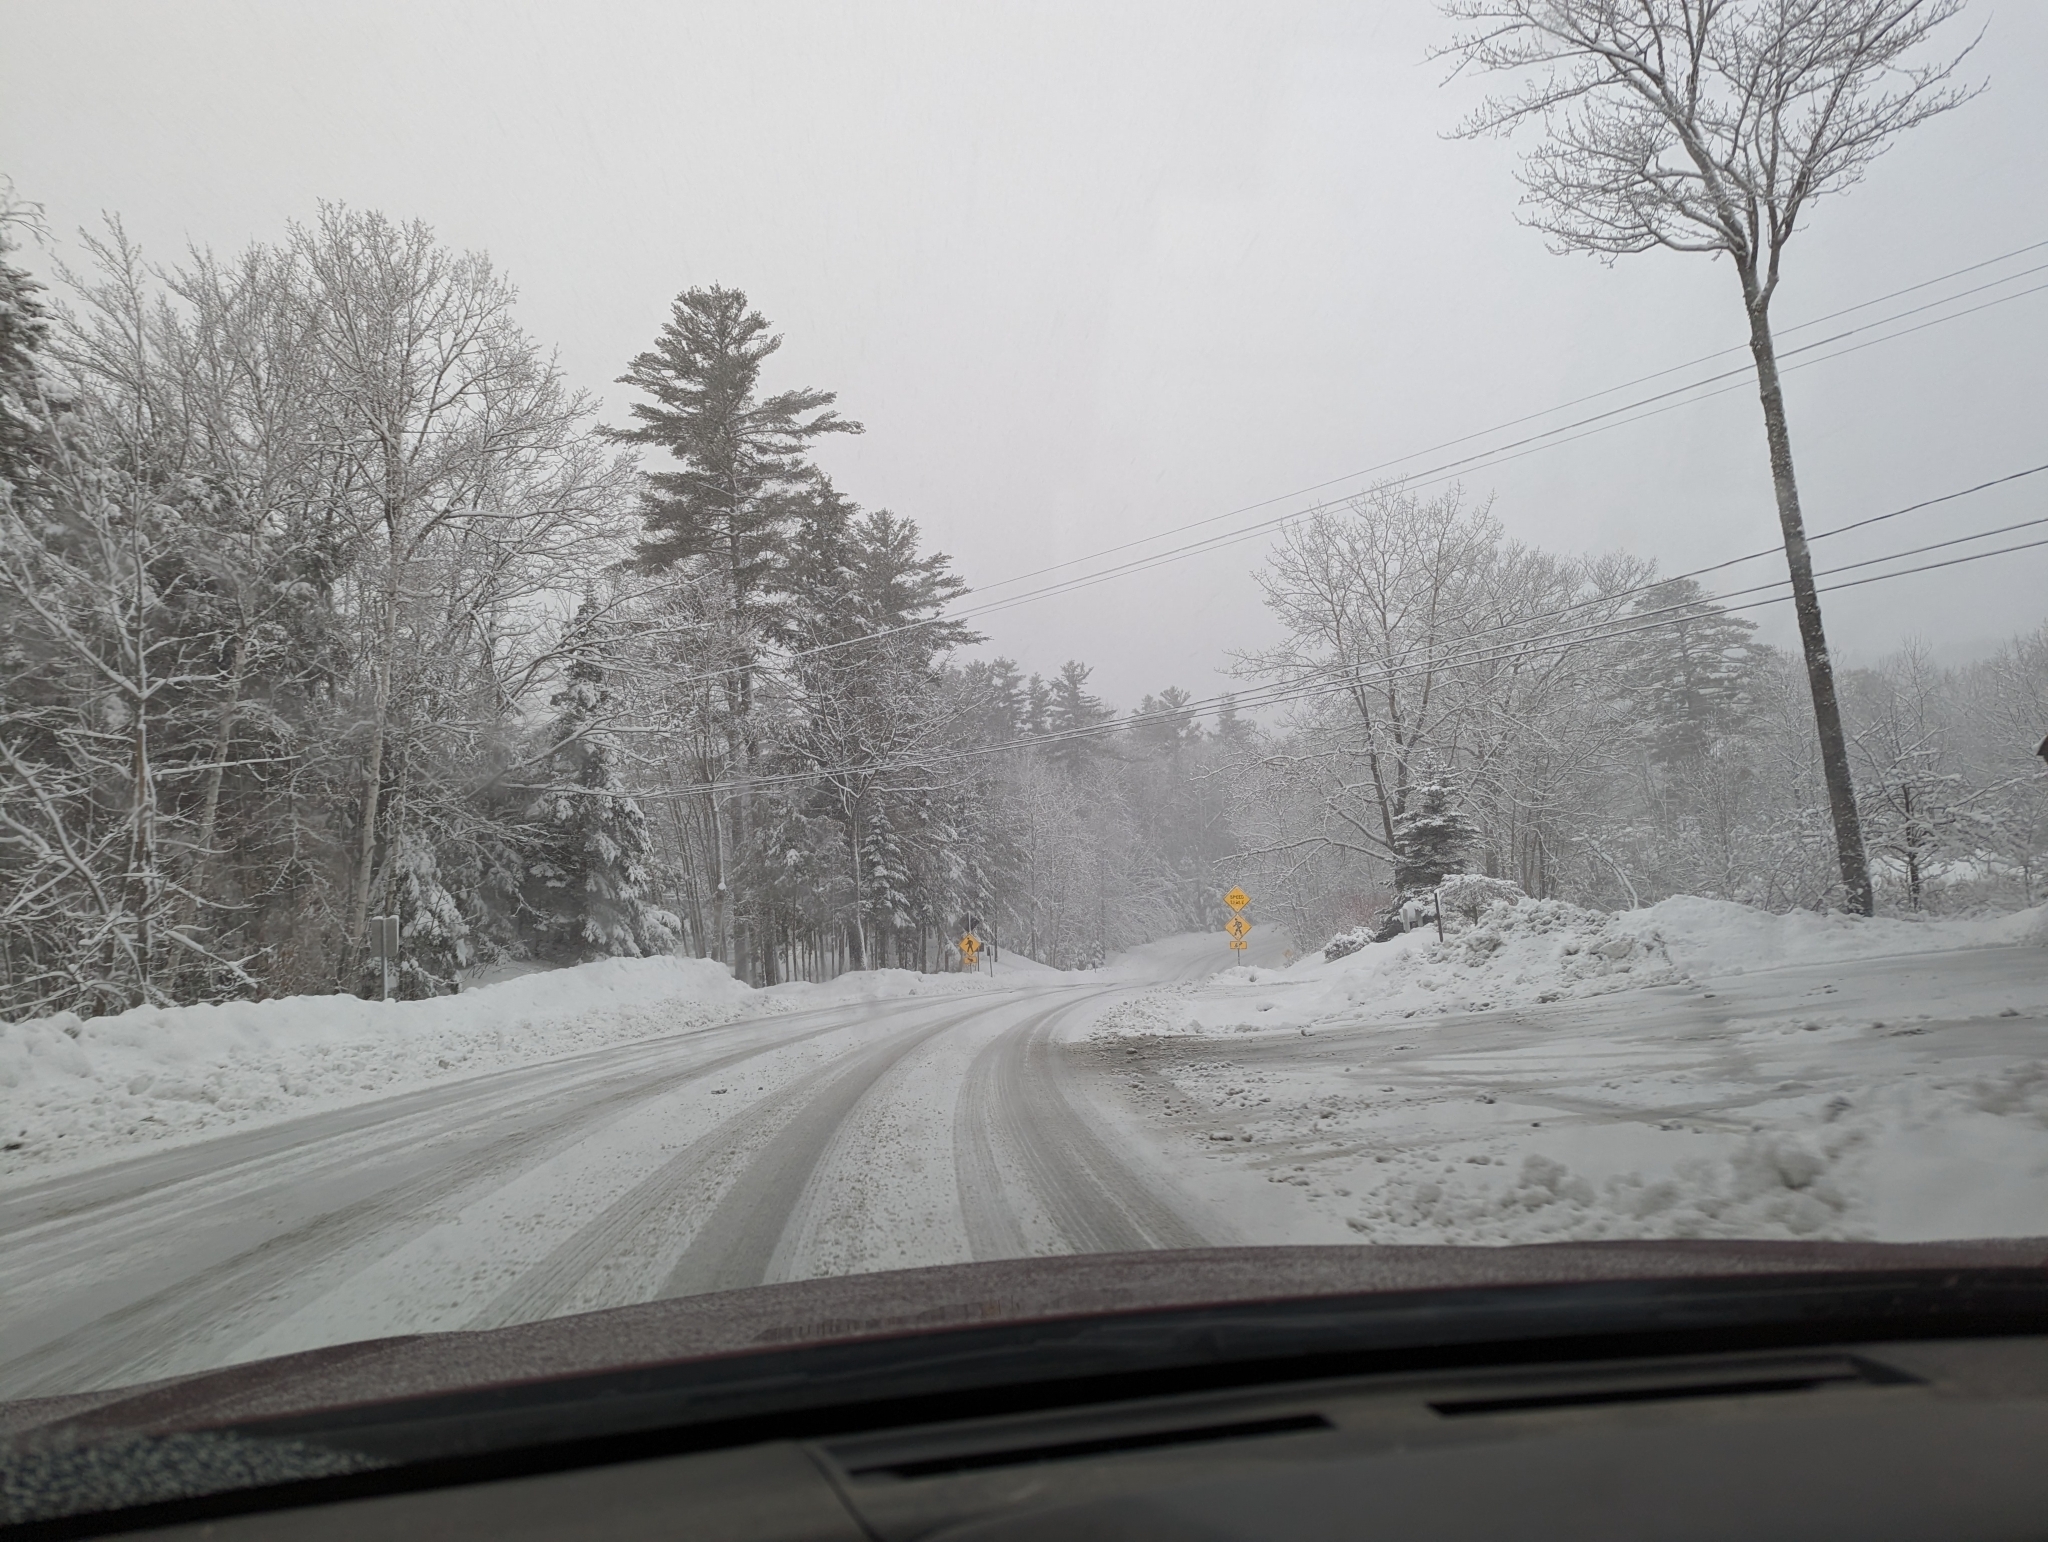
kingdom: Plantae
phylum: Tracheophyta
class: Pinopsida
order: Pinales
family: Pinaceae
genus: Pinus
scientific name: Pinus strobus
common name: Weymouth pine
